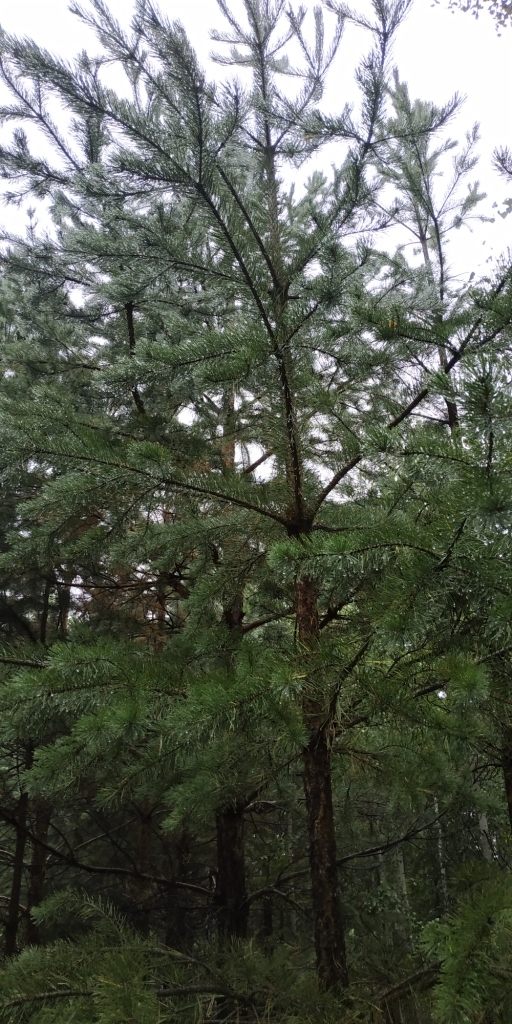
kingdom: Plantae
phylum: Tracheophyta
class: Pinopsida
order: Pinales
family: Pinaceae
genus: Pinus
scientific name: Pinus sylvestris
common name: Scots pine
